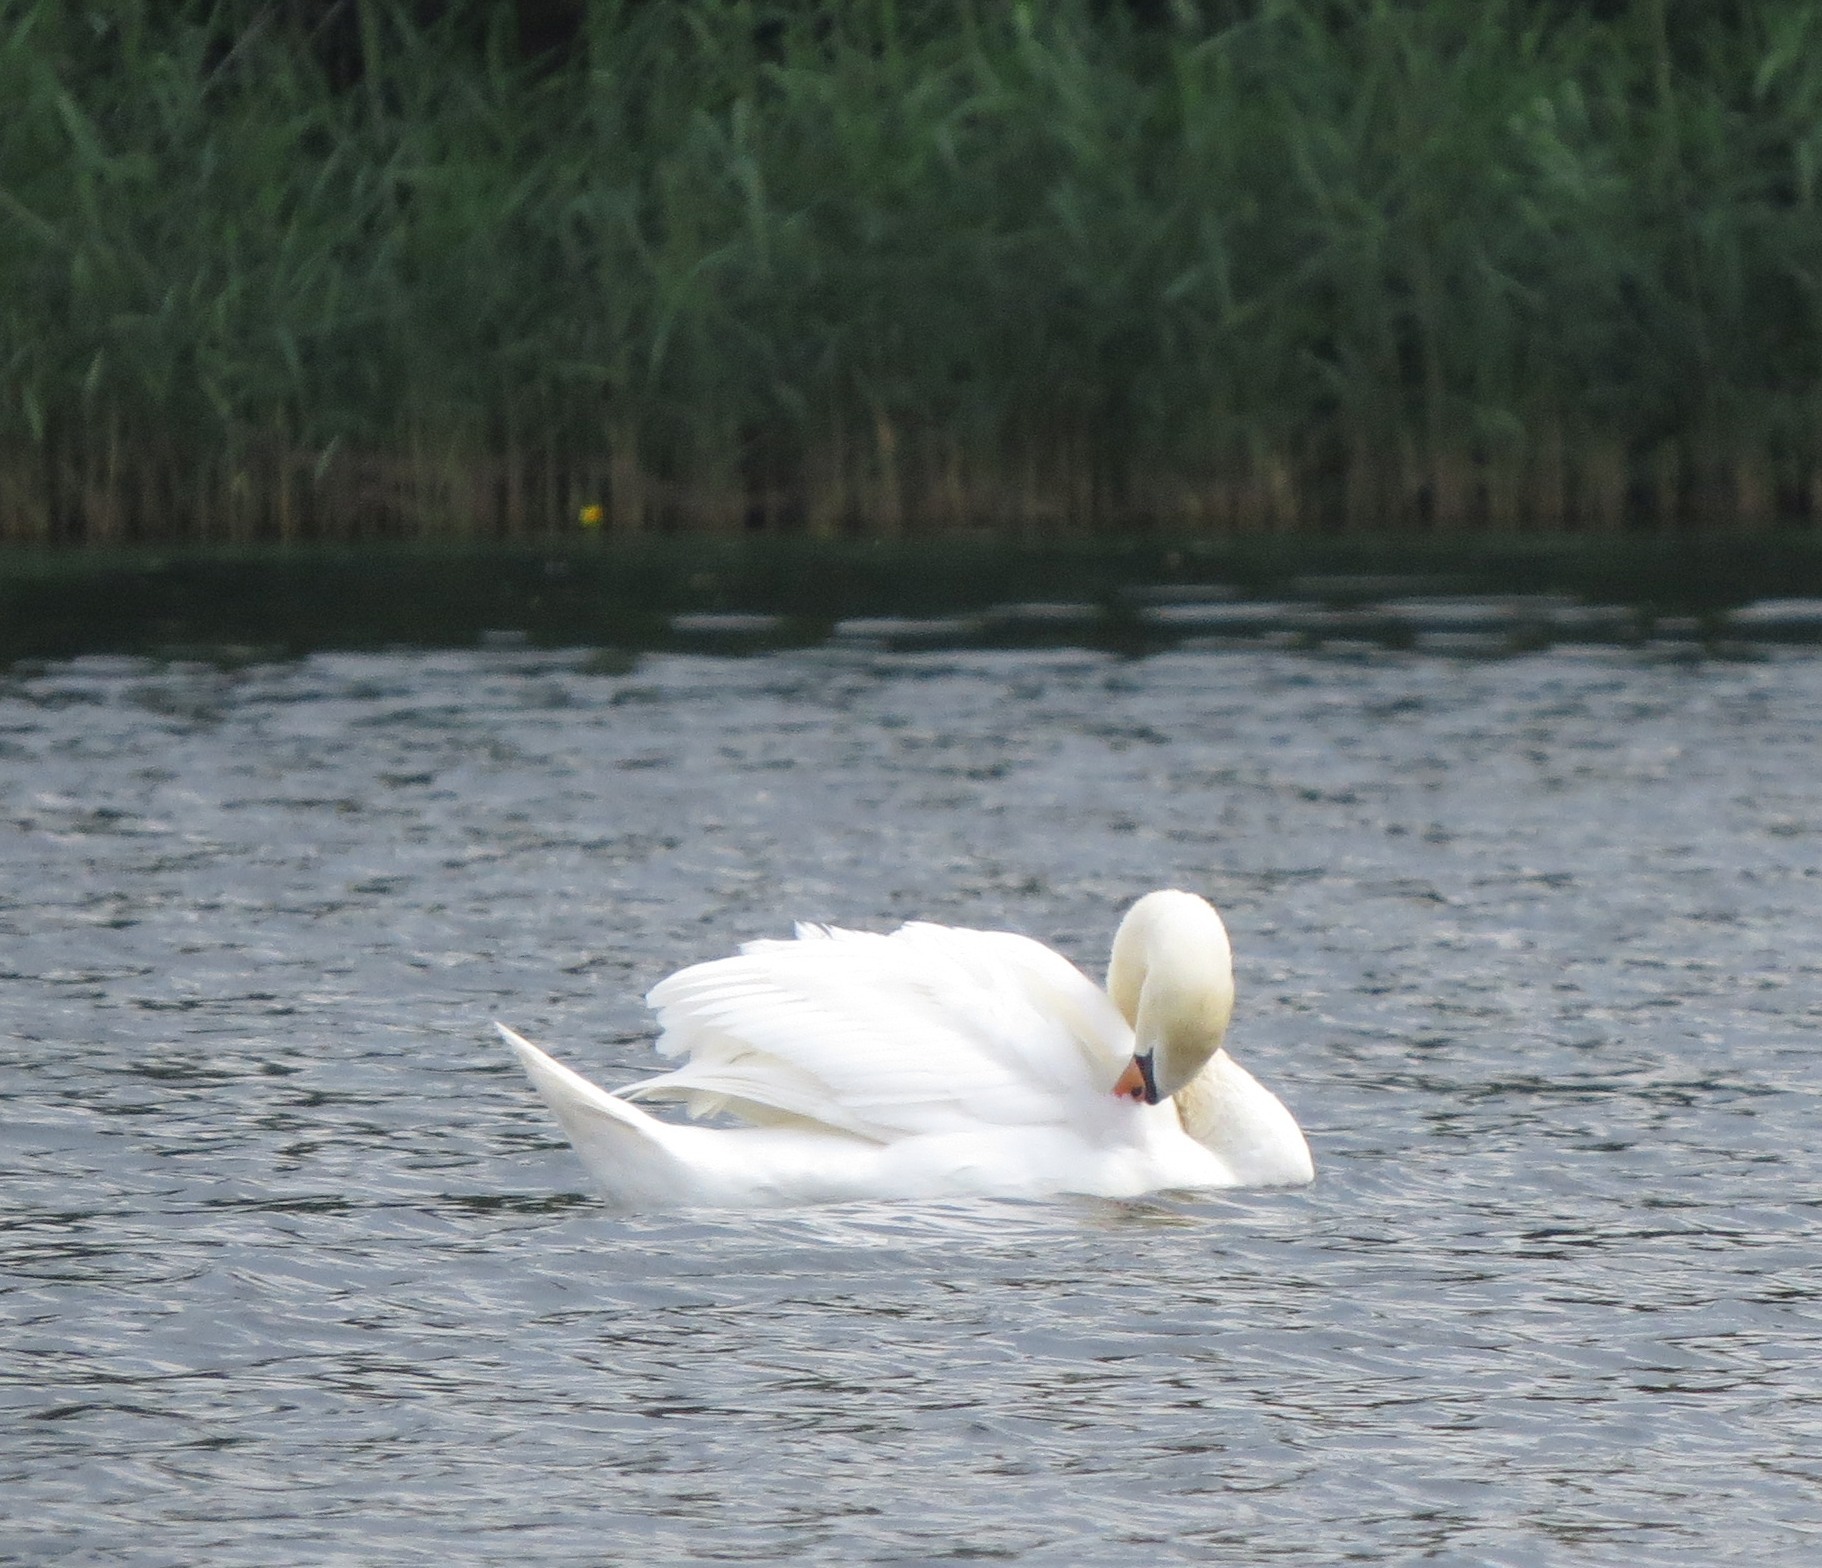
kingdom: Animalia
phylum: Chordata
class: Aves
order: Anseriformes
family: Anatidae
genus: Cygnus
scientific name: Cygnus olor
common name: Mute swan
